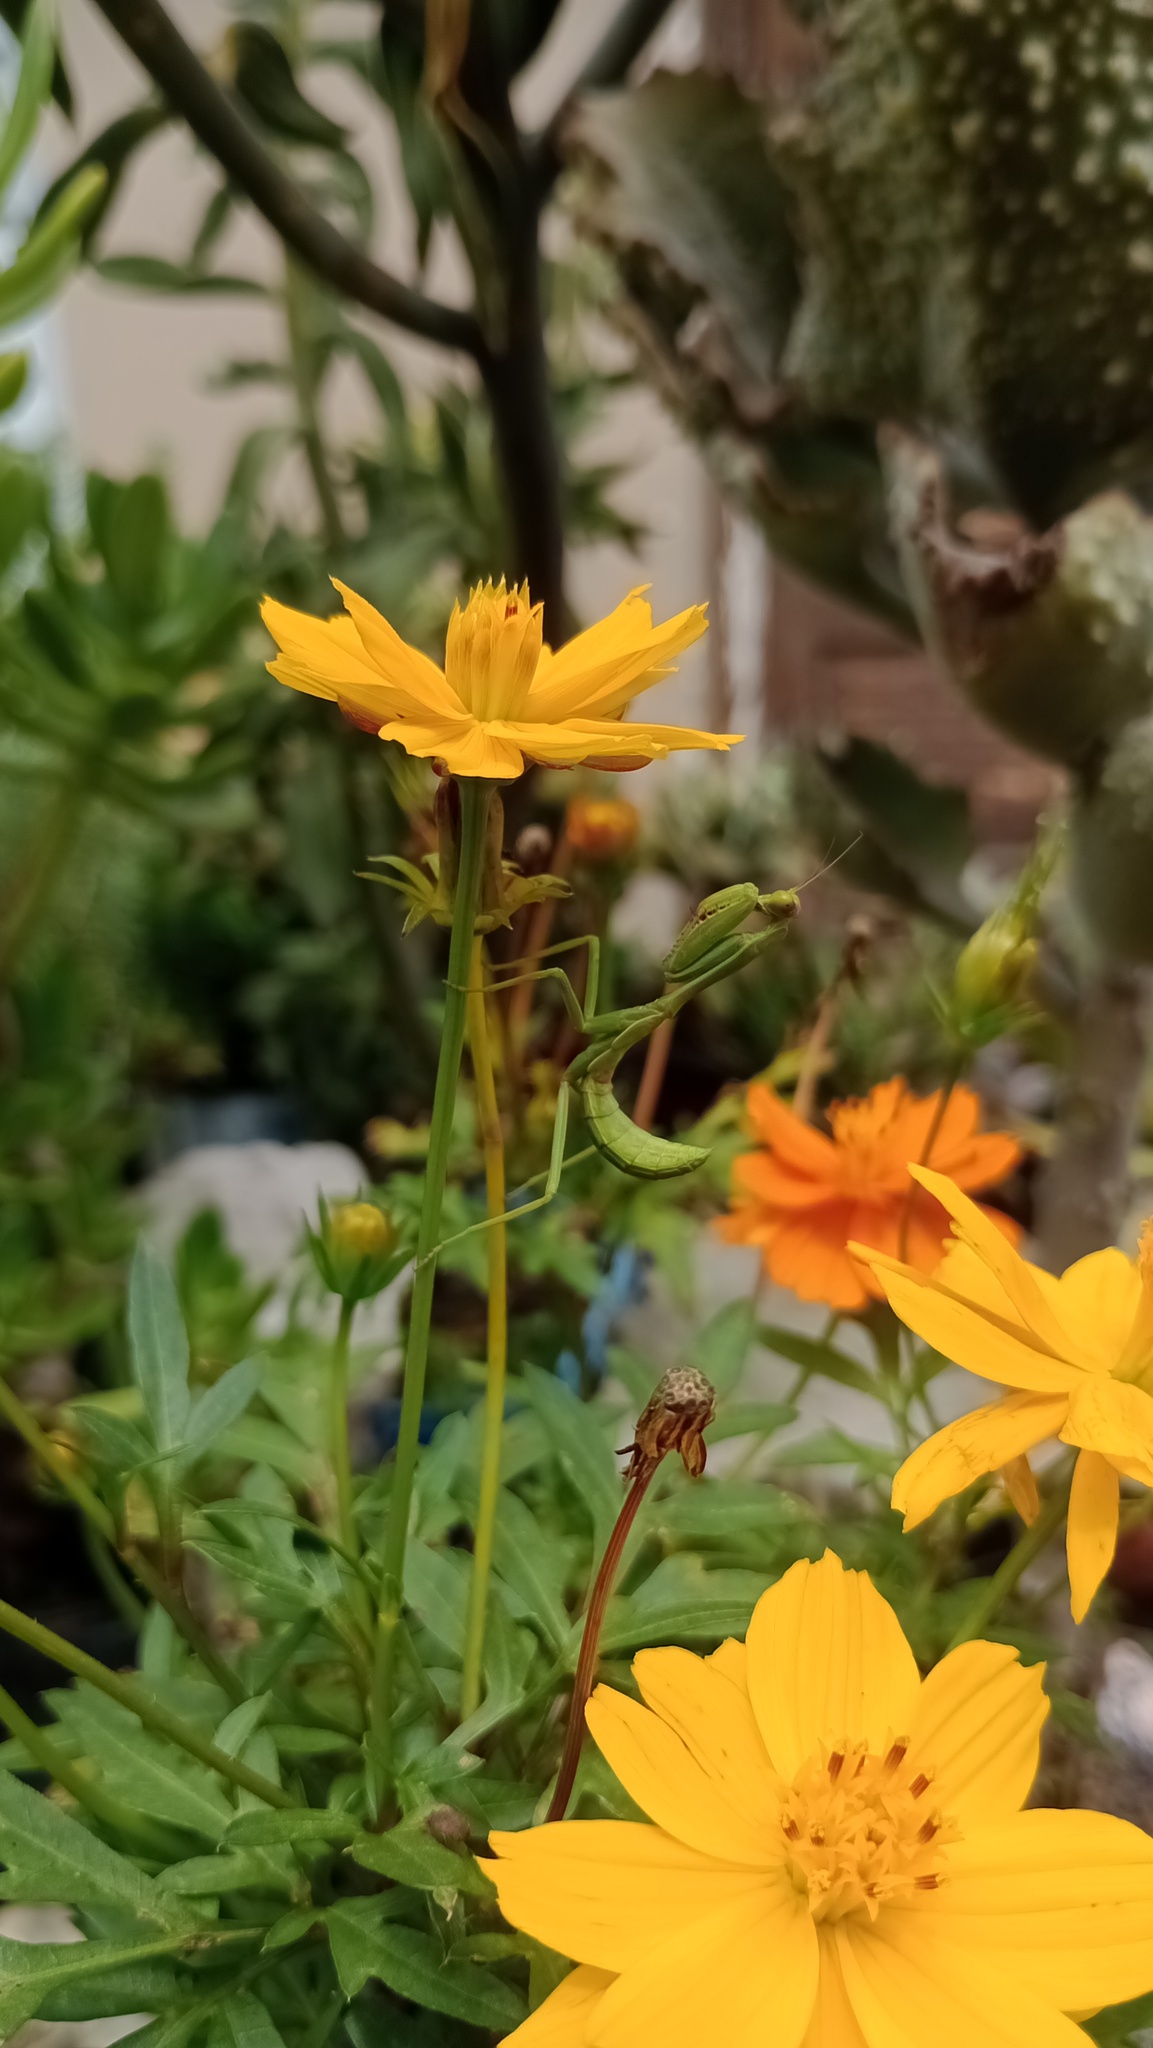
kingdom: Animalia
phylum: Arthropoda
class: Insecta
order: Mantodea
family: Mantidae
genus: Stagmatoptera
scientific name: Stagmatoptera hyaloptera
